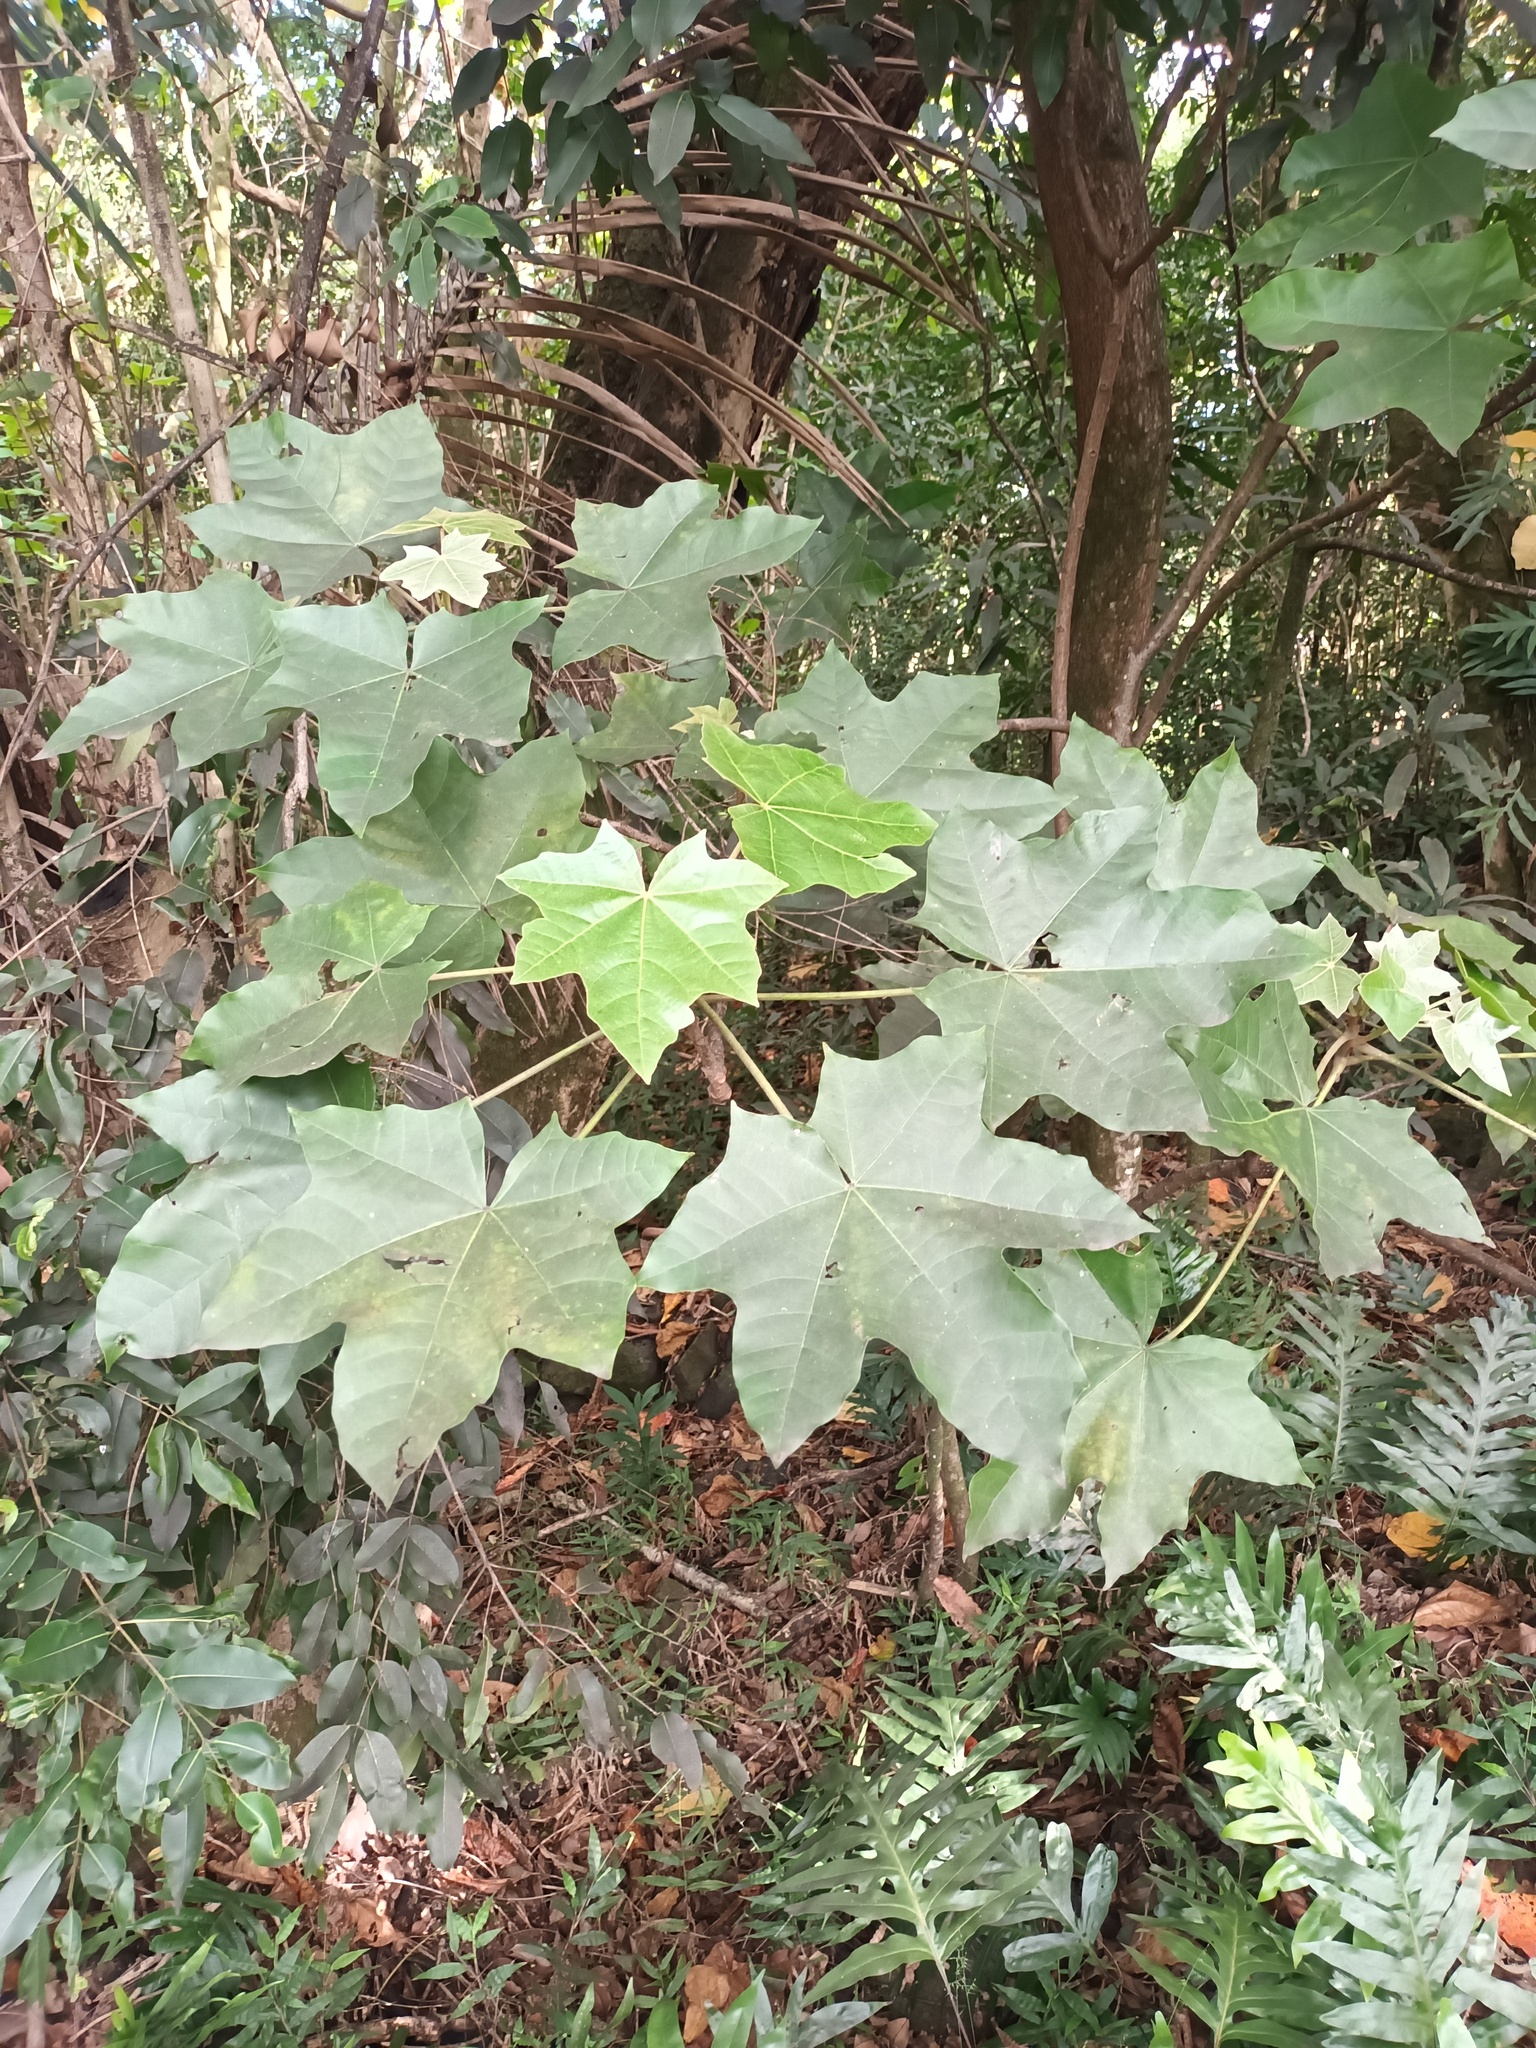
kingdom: Plantae
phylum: Tracheophyta
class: Magnoliopsida
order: Malpighiales
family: Euphorbiaceae
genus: Aleurites
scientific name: Aleurites moluccanus
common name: Candlenut tree
